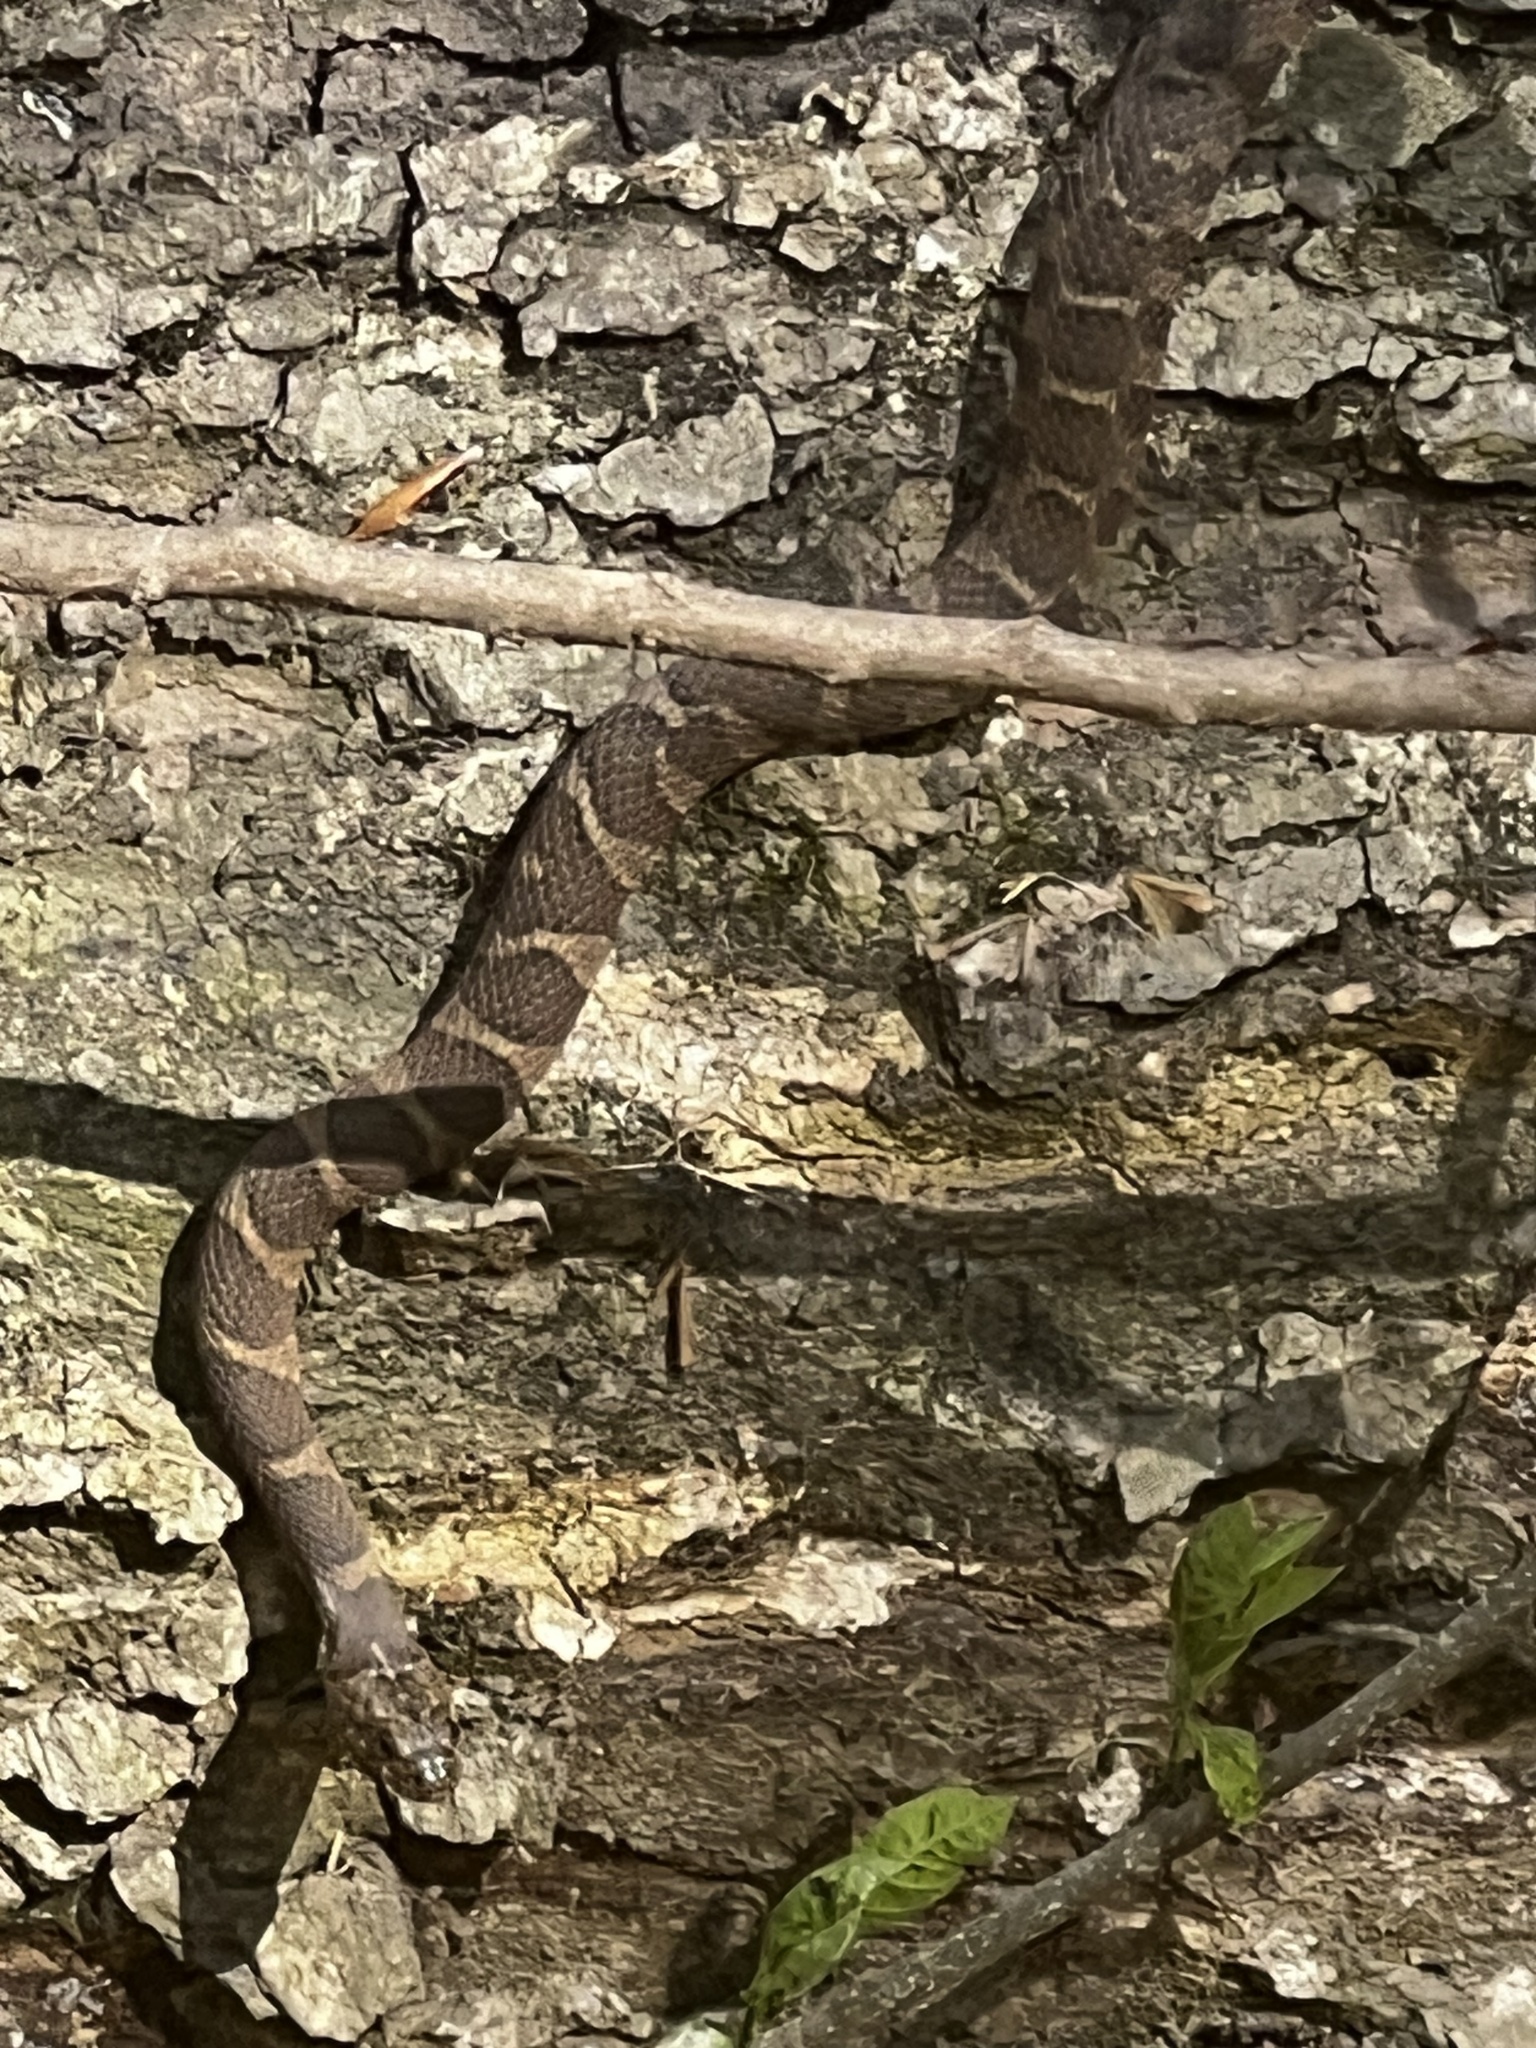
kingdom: Animalia
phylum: Chordata
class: Squamata
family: Colubridae
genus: Nerodia
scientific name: Nerodia sipedon
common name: Northern water snake
